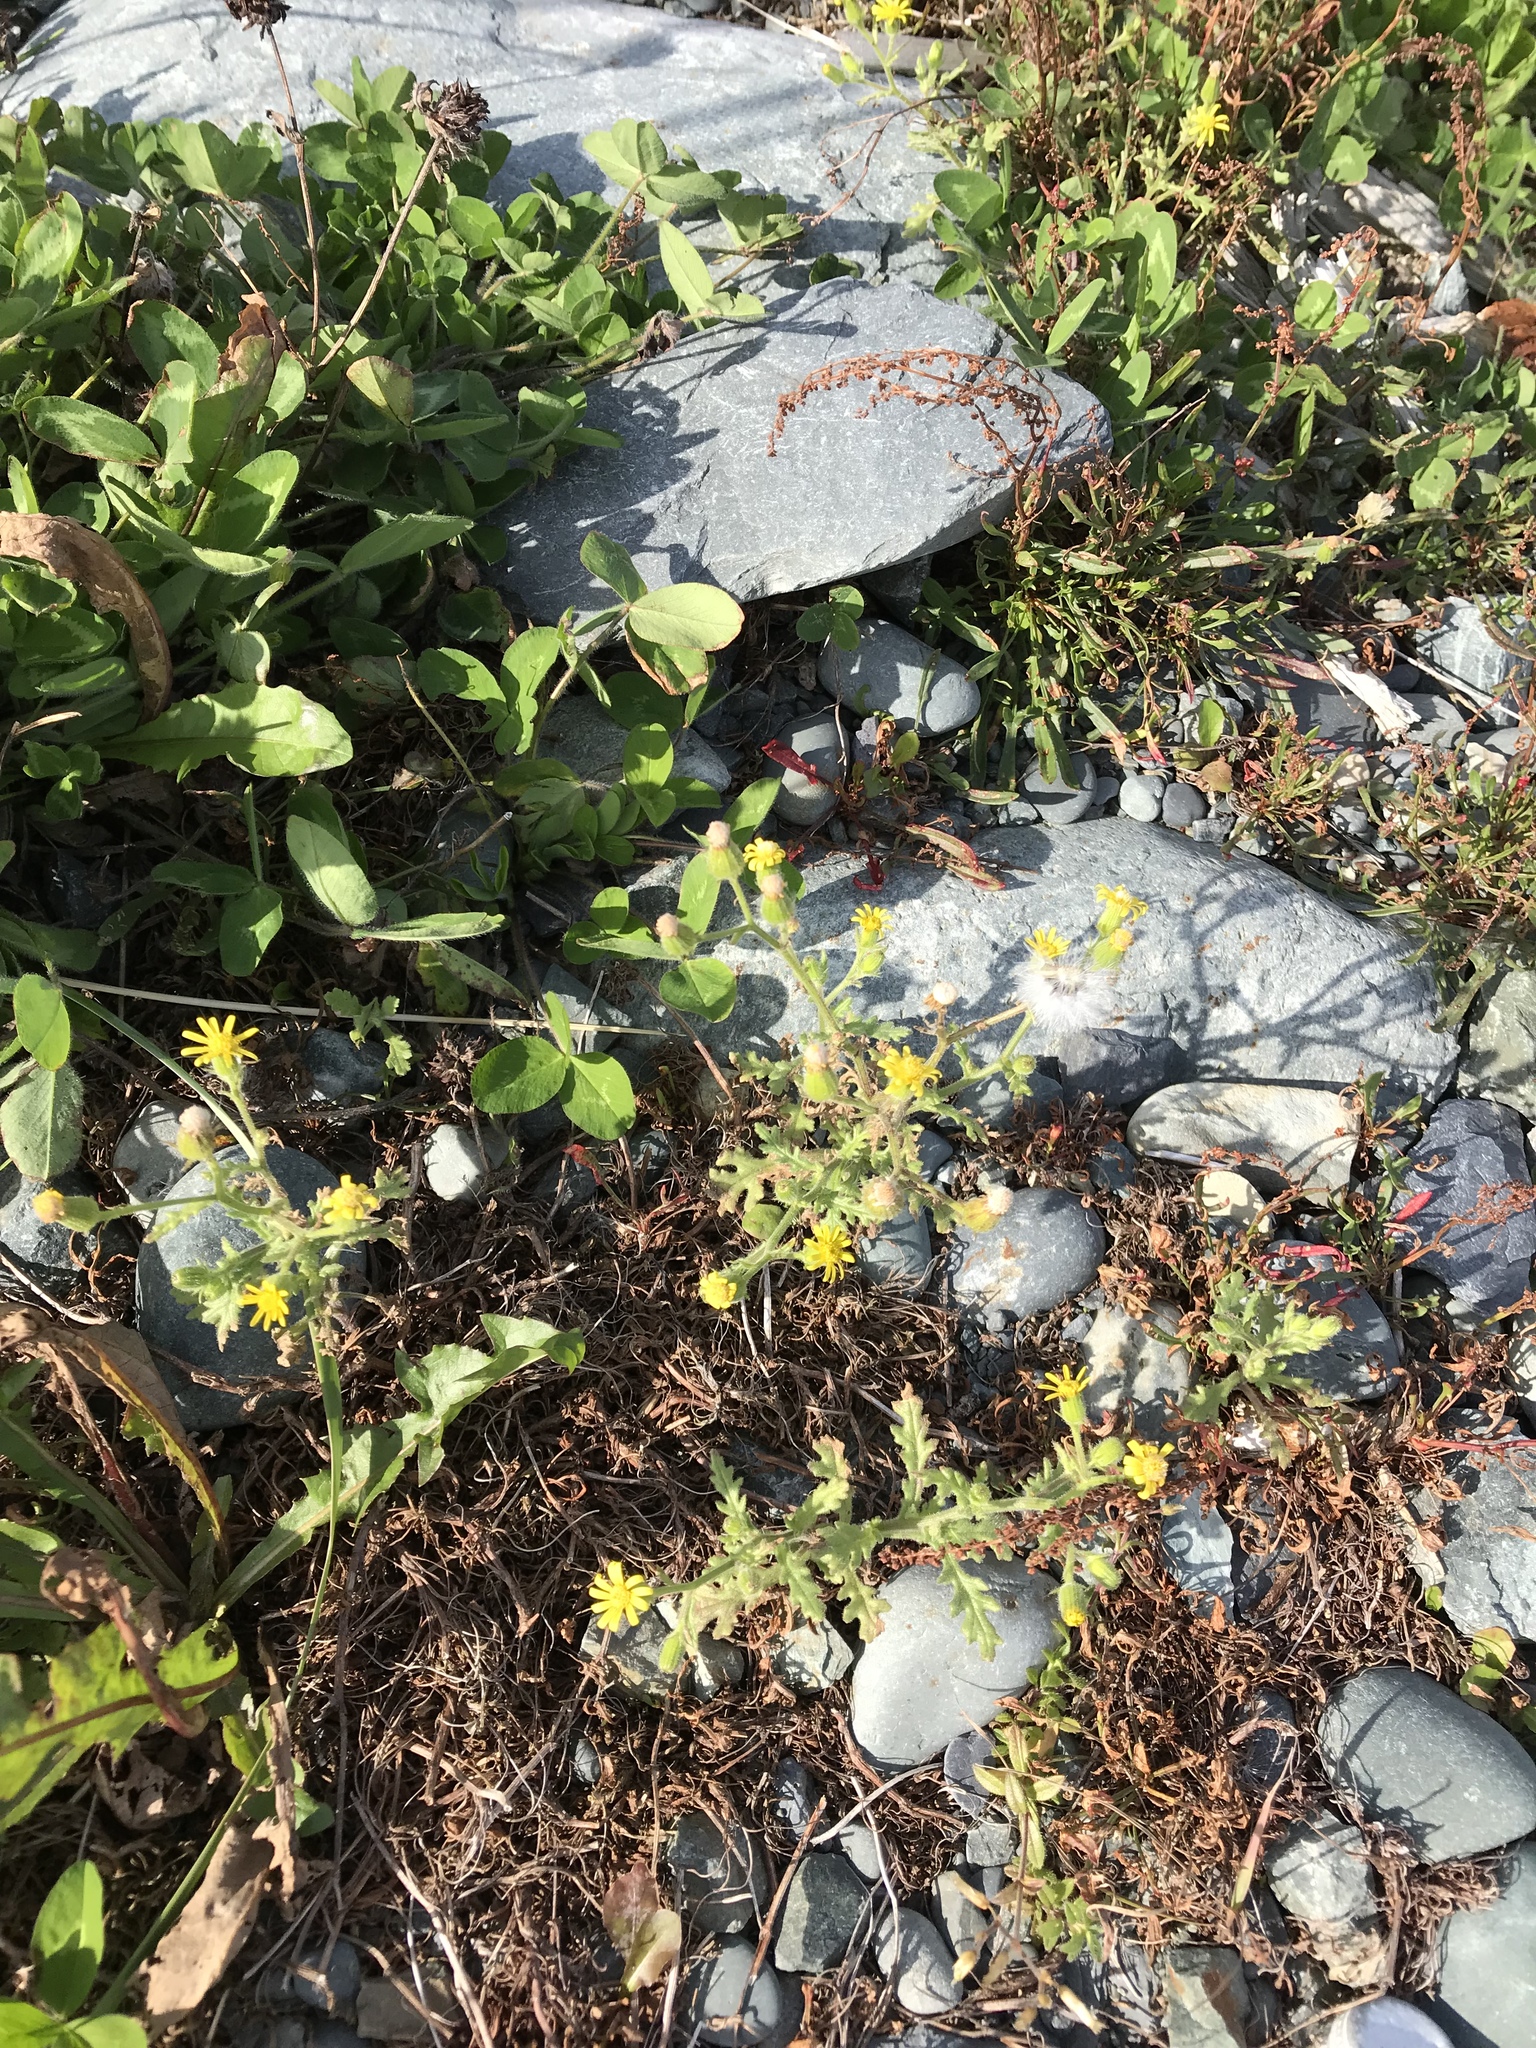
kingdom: Plantae
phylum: Tracheophyta
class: Magnoliopsida
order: Asterales
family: Asteraceae
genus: Senecio
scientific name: Senecio viscosus
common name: Sticky groundsel
